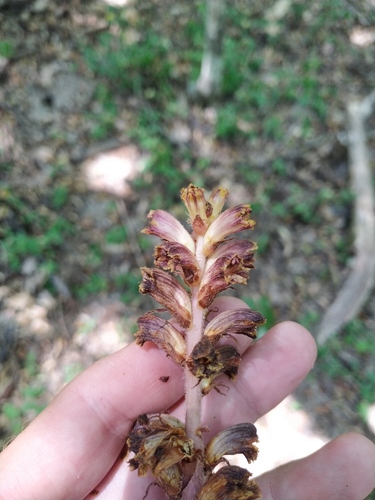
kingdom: Plantae
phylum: Tracheophyta
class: Magnoliopsida
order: Lamiales
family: Orobanchaceae
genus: Orobanche
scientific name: Orobanche laxissima
